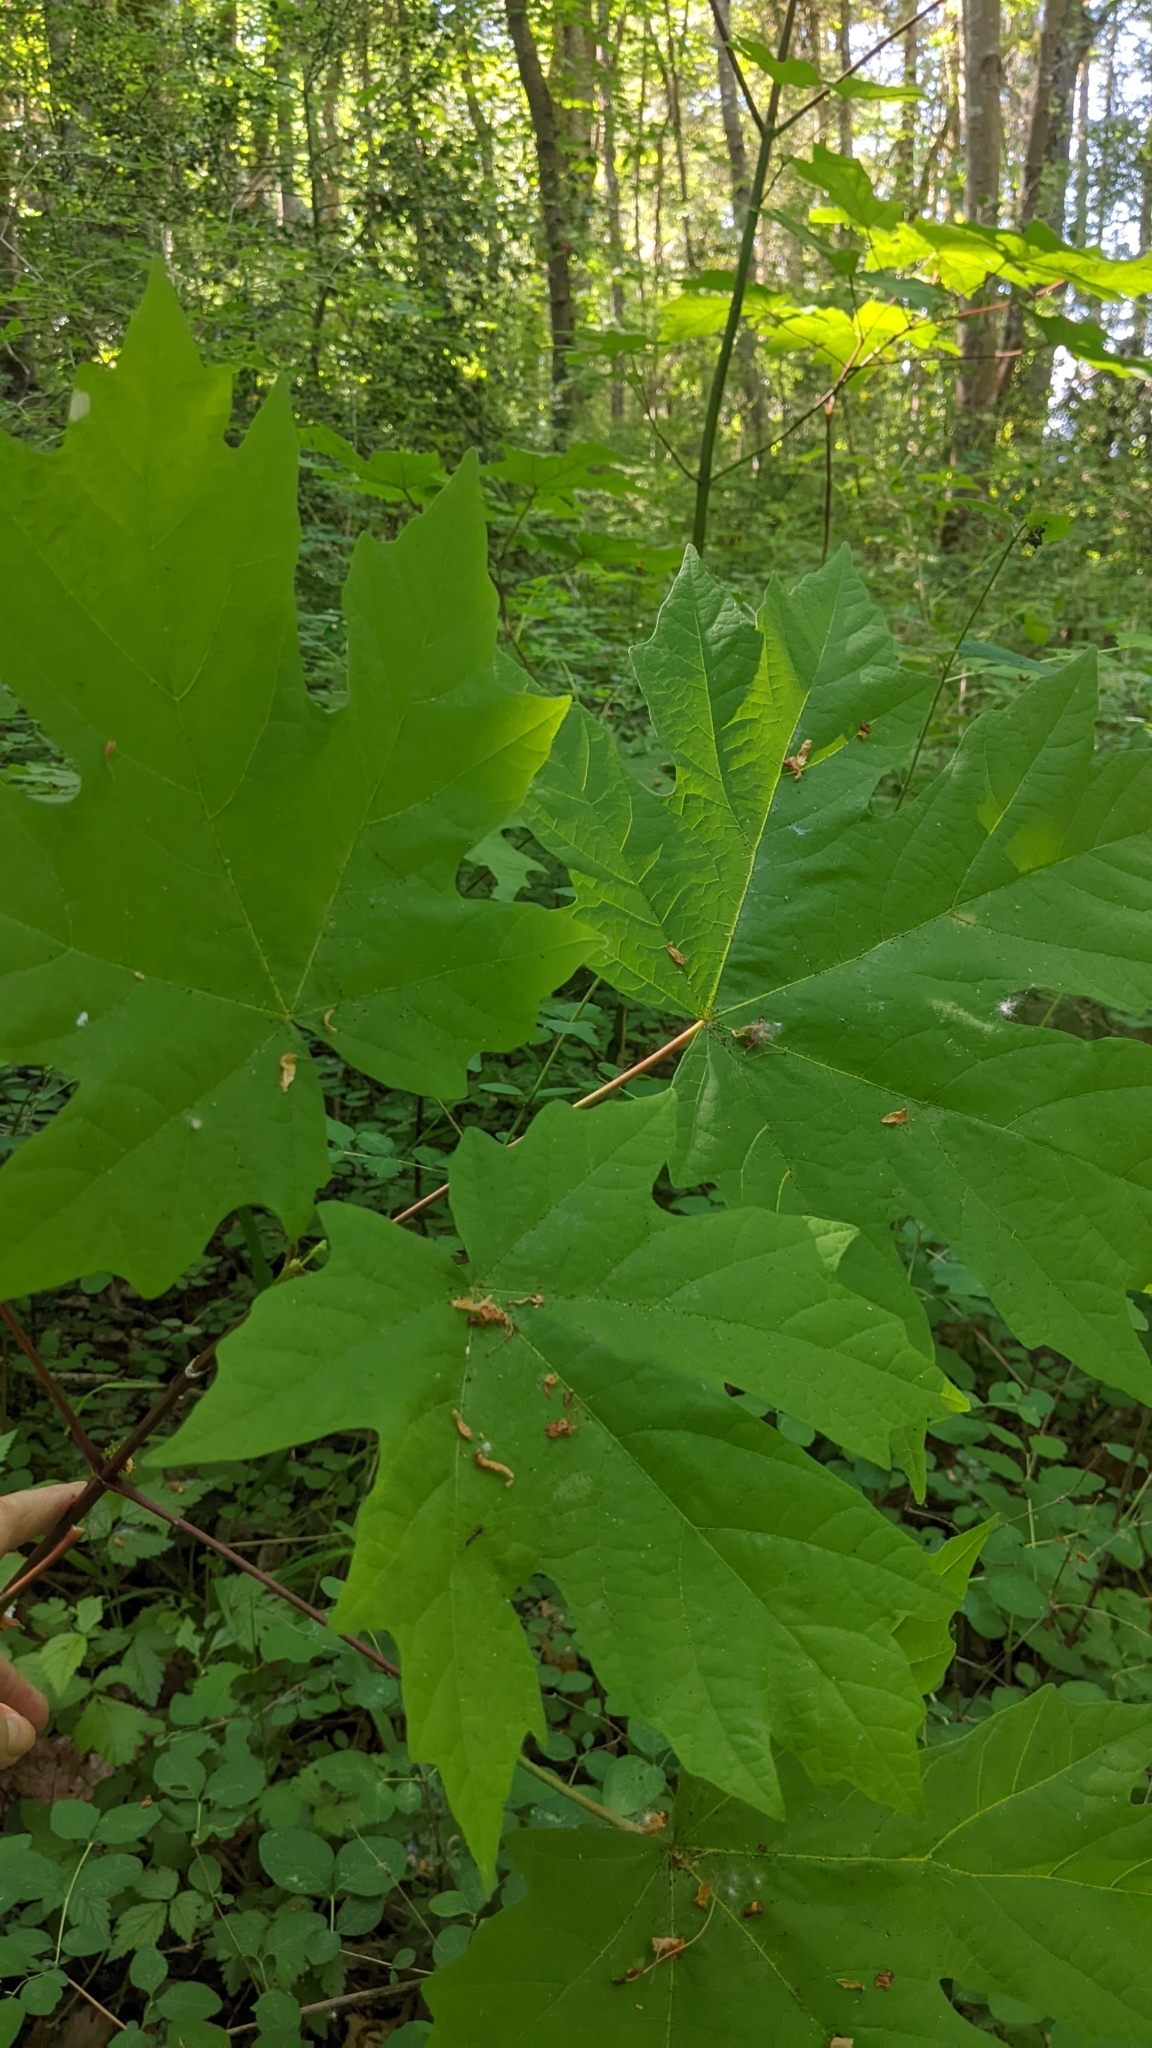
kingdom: Plantae
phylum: Tracheophyta
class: Magnoliopsida
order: Sapindales
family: Sapindaceae
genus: Acer
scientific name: Acer macrophyllum
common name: Oregon maple
